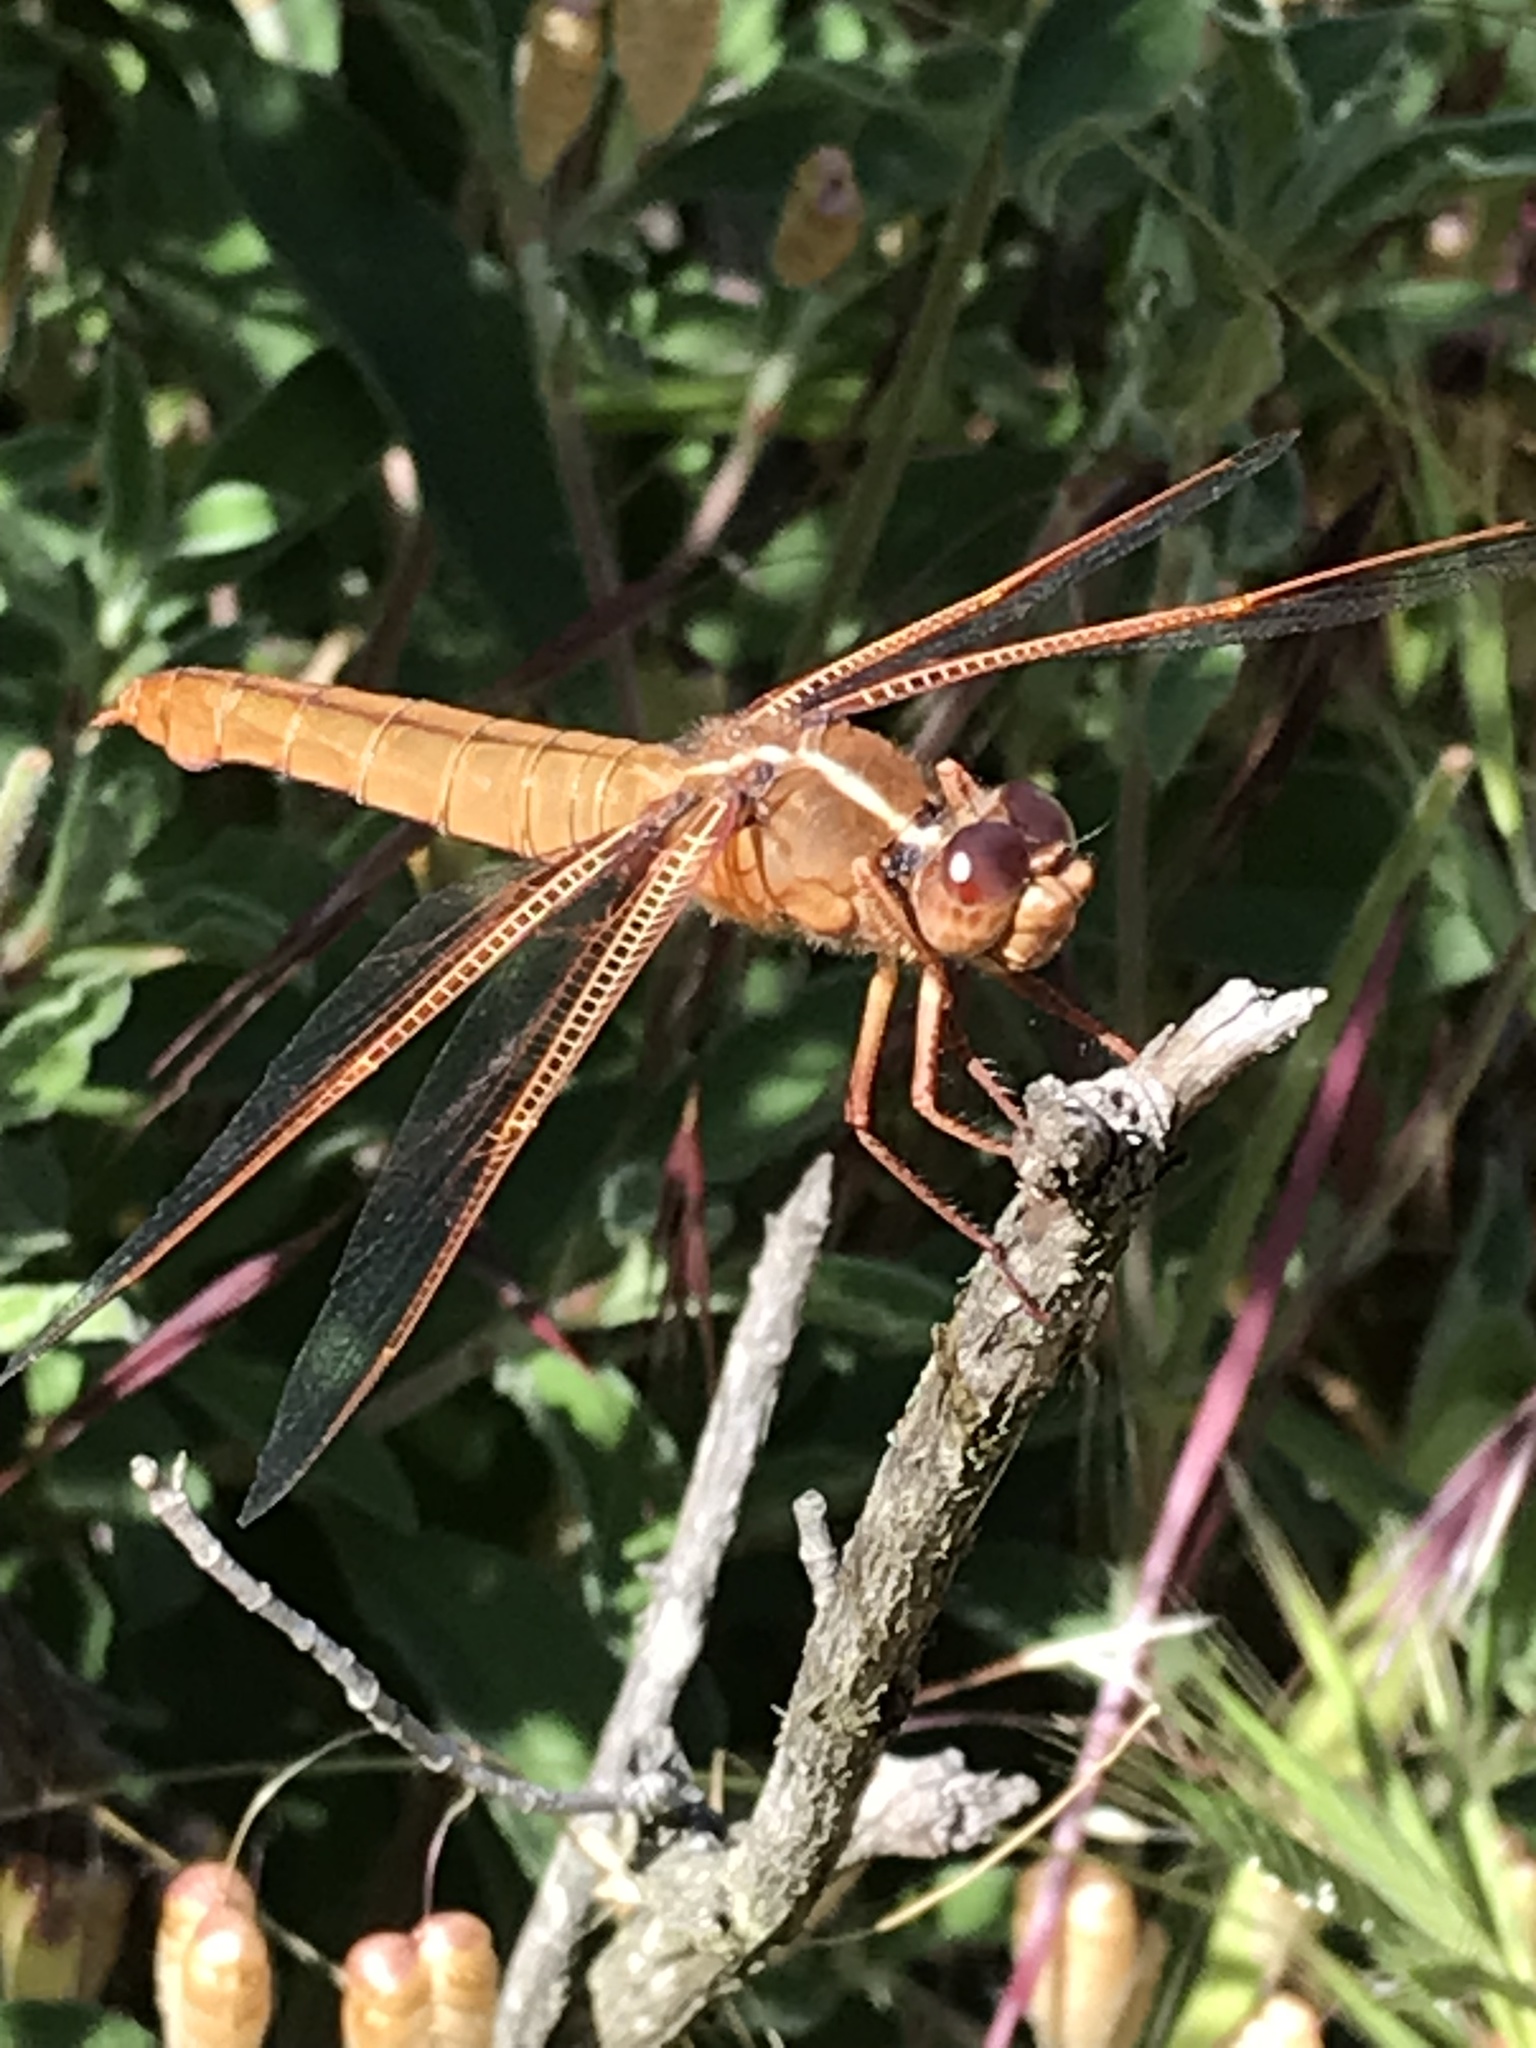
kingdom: Animalia
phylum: Arthropoda
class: Insecta
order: Odonata
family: Libellulidae
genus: Libellula
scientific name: Libellula saturata
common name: Flame skimmer
